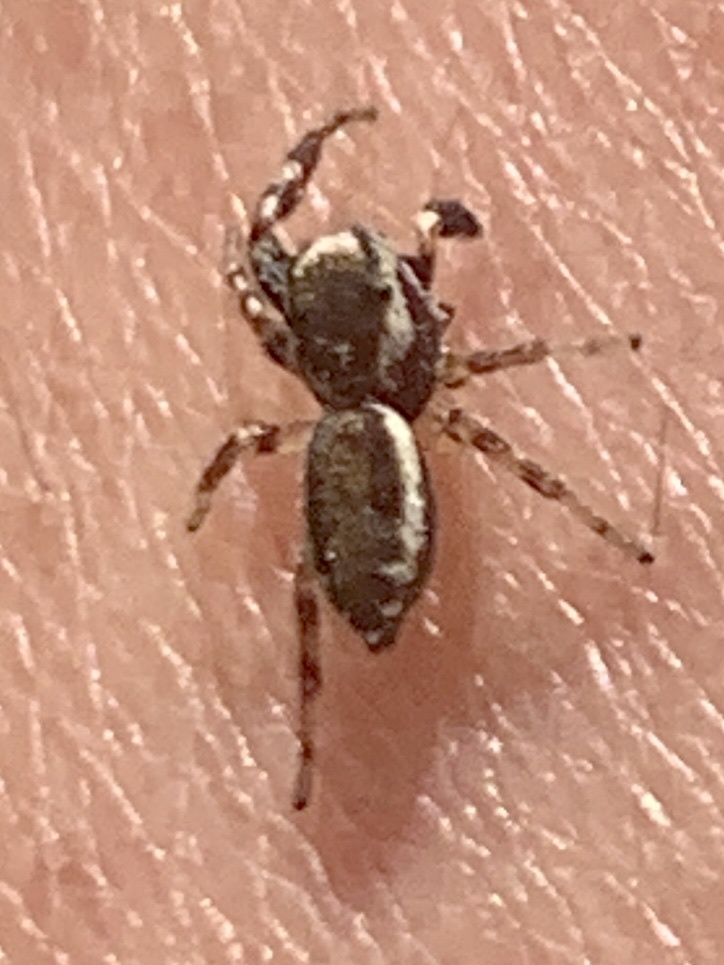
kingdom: Animalia
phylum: Arthropoda
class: Arachnida
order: Araneae
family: Salticidae
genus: Pelegrina
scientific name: Pelegrina proterva
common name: Common white-cheeked jumping spider
